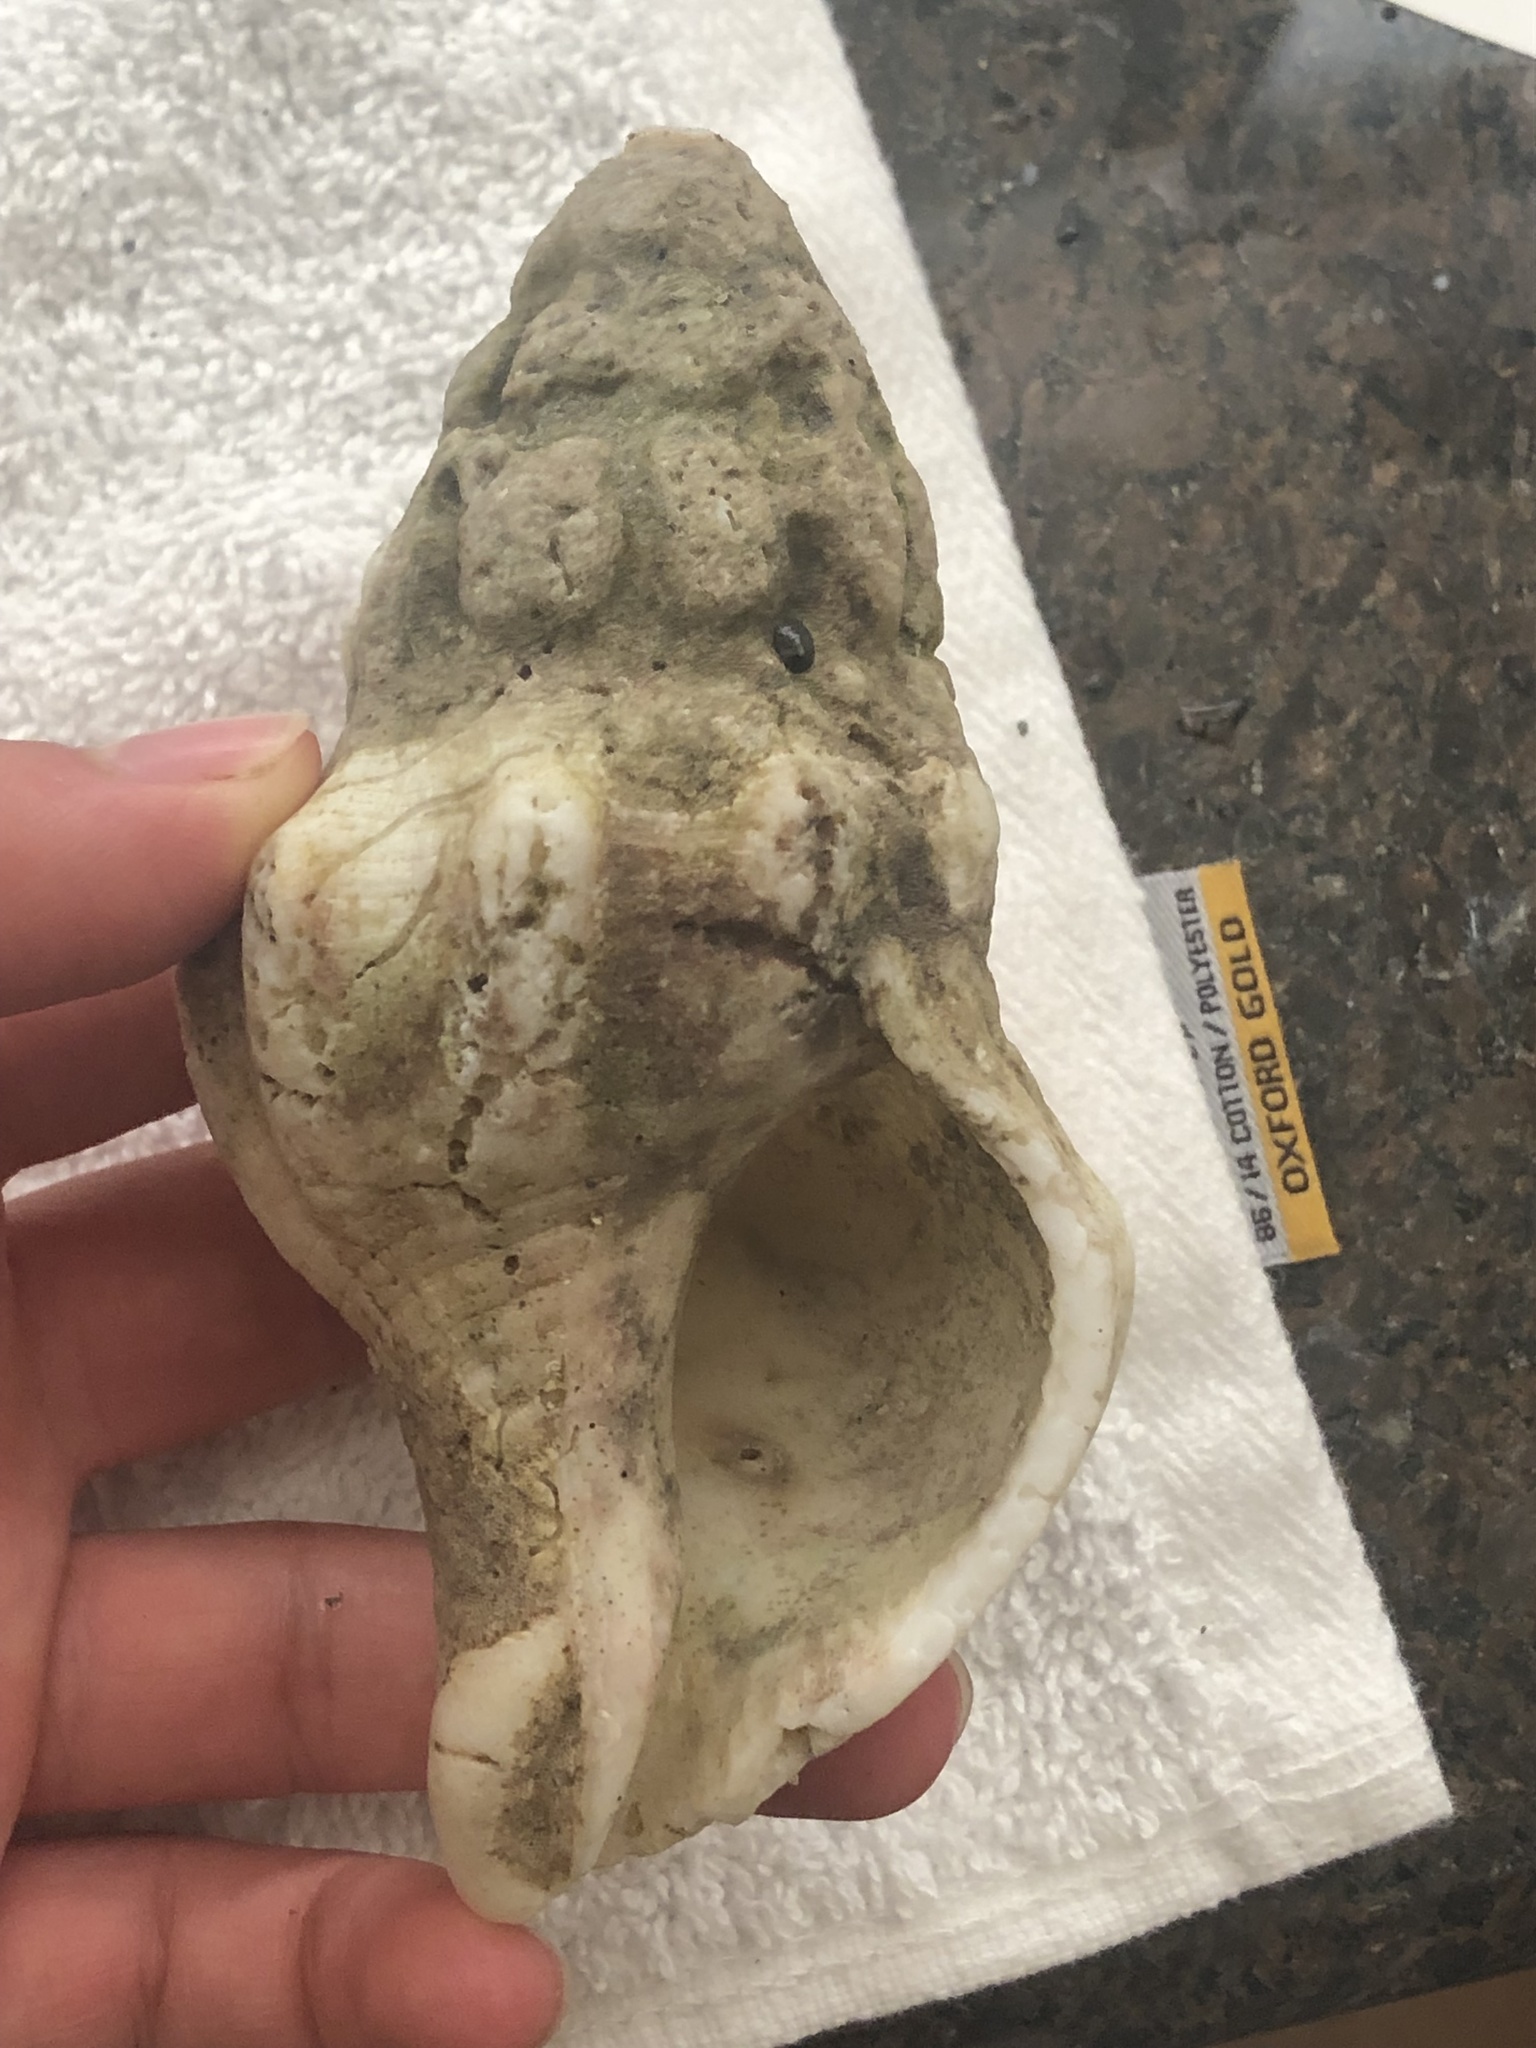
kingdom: Animalia
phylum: Mollusca
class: Gastropoda
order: Neogastropoda
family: Austrosiphonidae
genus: Kelletia
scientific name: Kelletia kelletii
